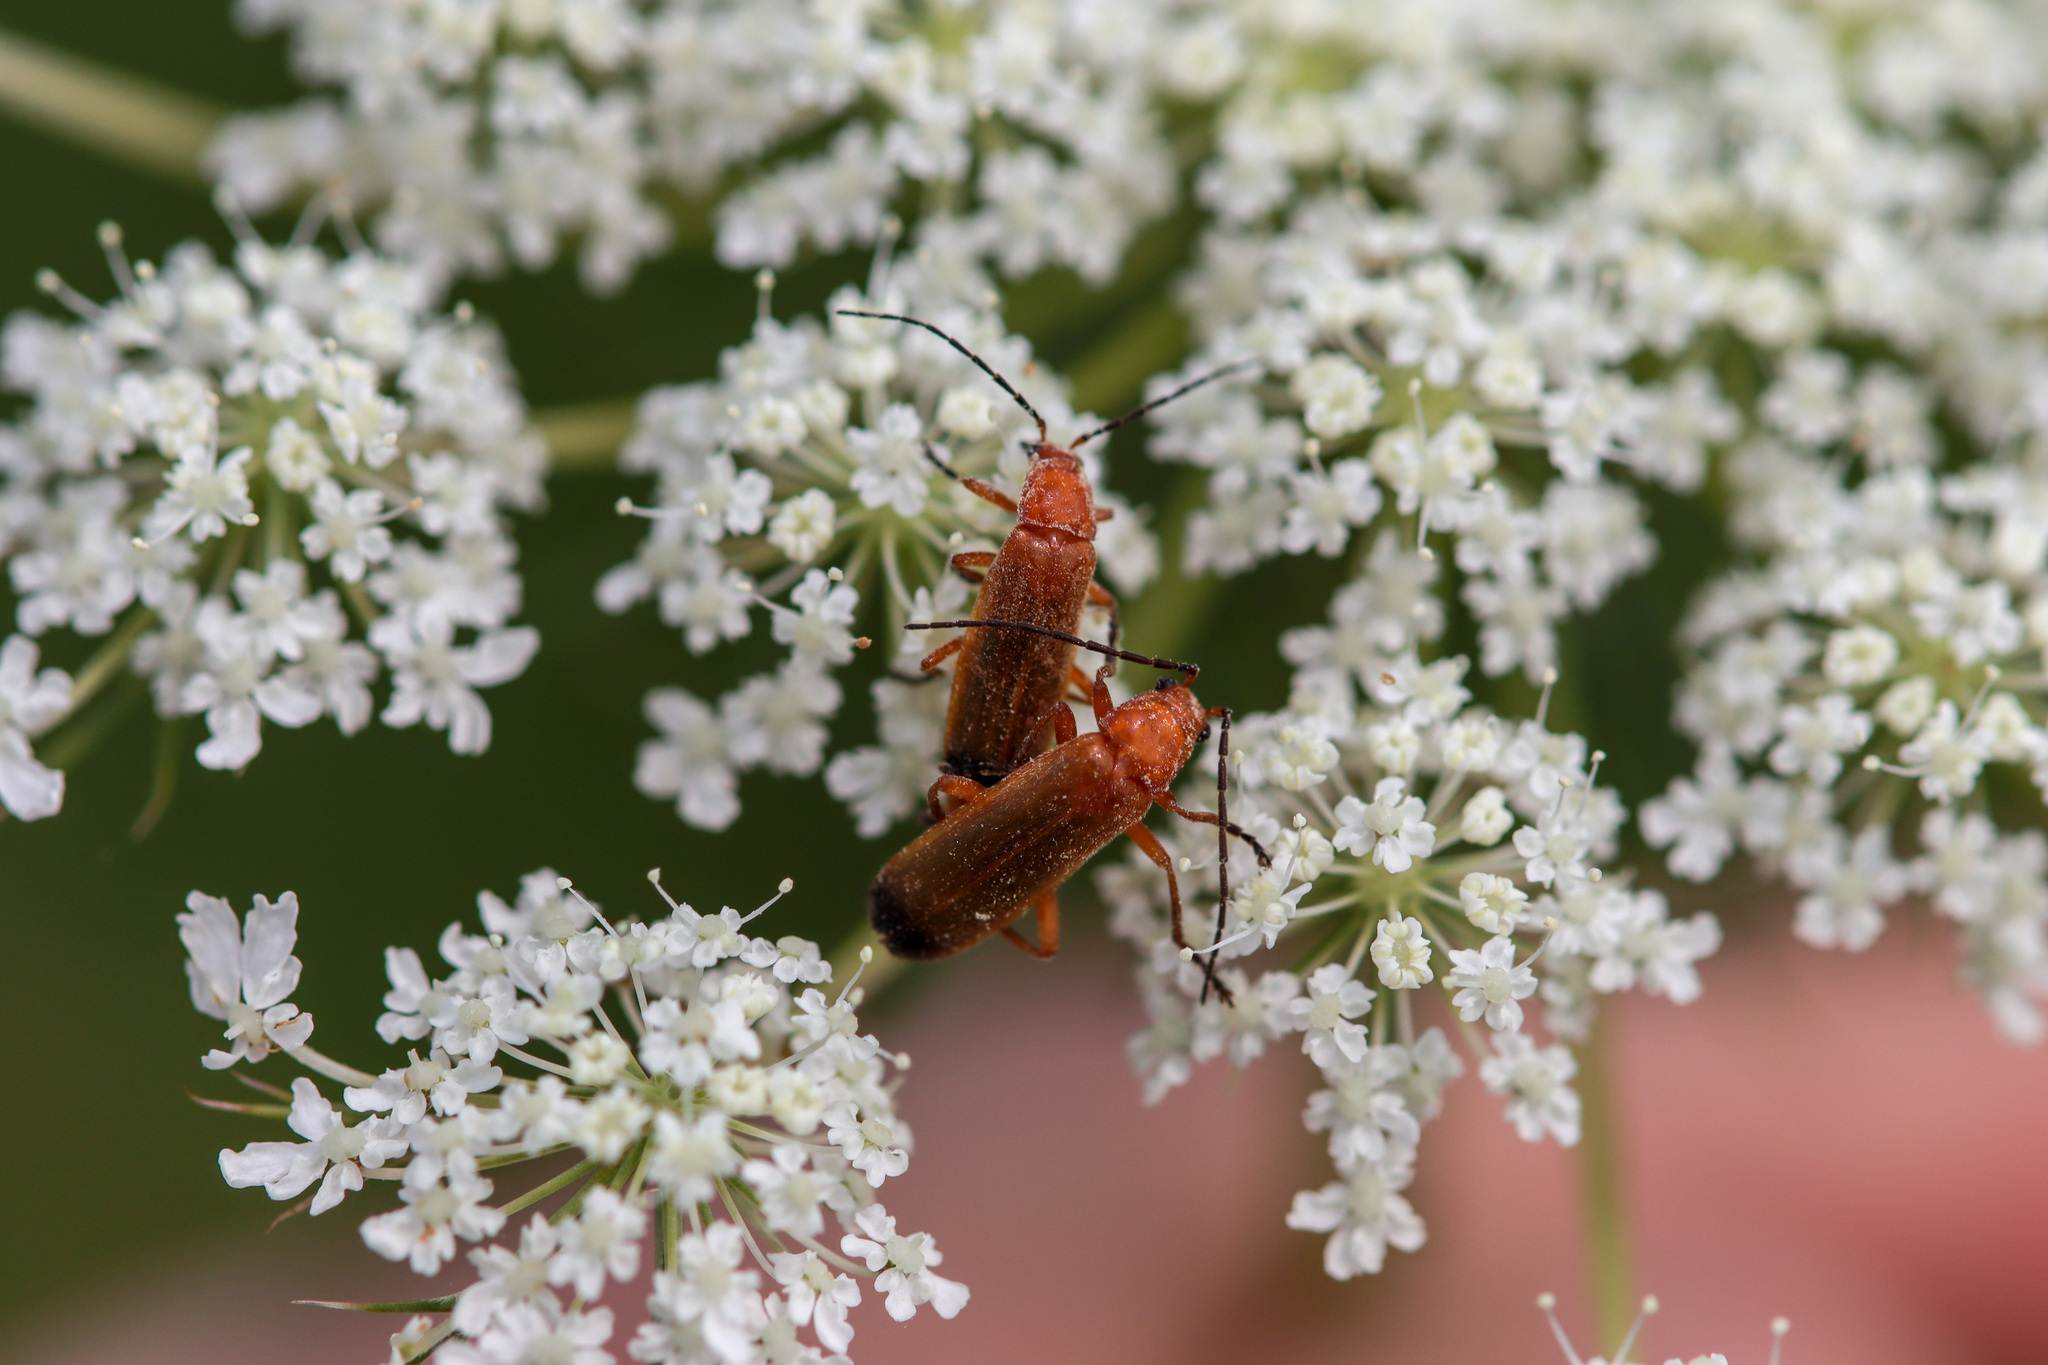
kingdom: Animalia
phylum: Arthropoda
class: Insecta
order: Coleoptera
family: Cantharidae
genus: Rhagonycha
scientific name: Rhagonycha fulva
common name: Common red soldier beetle
